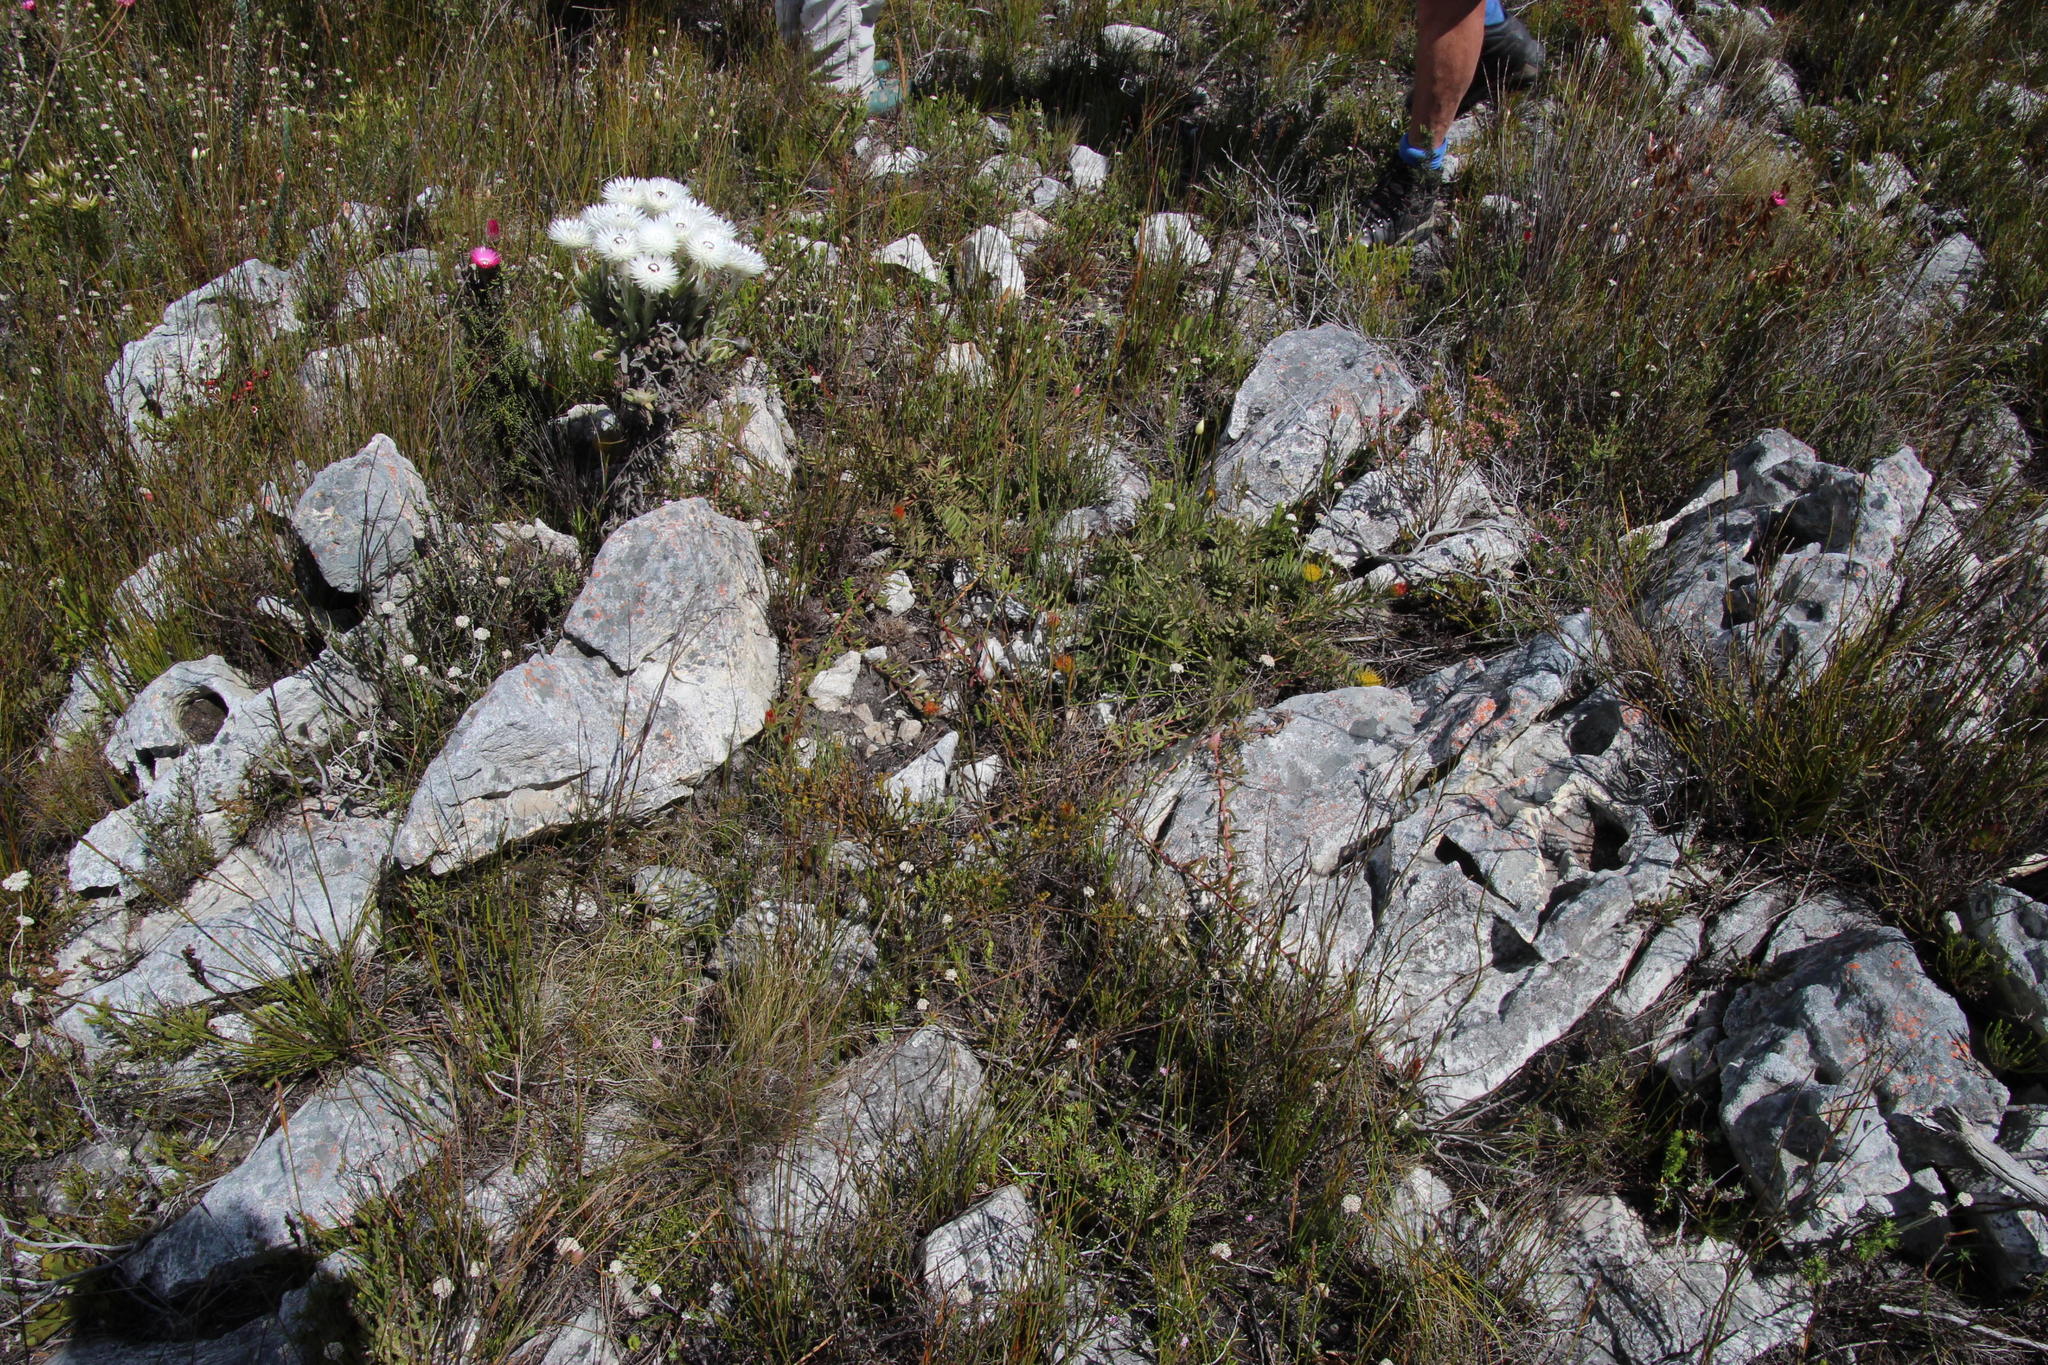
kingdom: Plantae
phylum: Tracheophyta
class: Magnoliopsida
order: Proteales
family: Proteaceae
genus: Leucospermum
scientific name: Leucospermum gracile
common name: Hermanus pincushion
